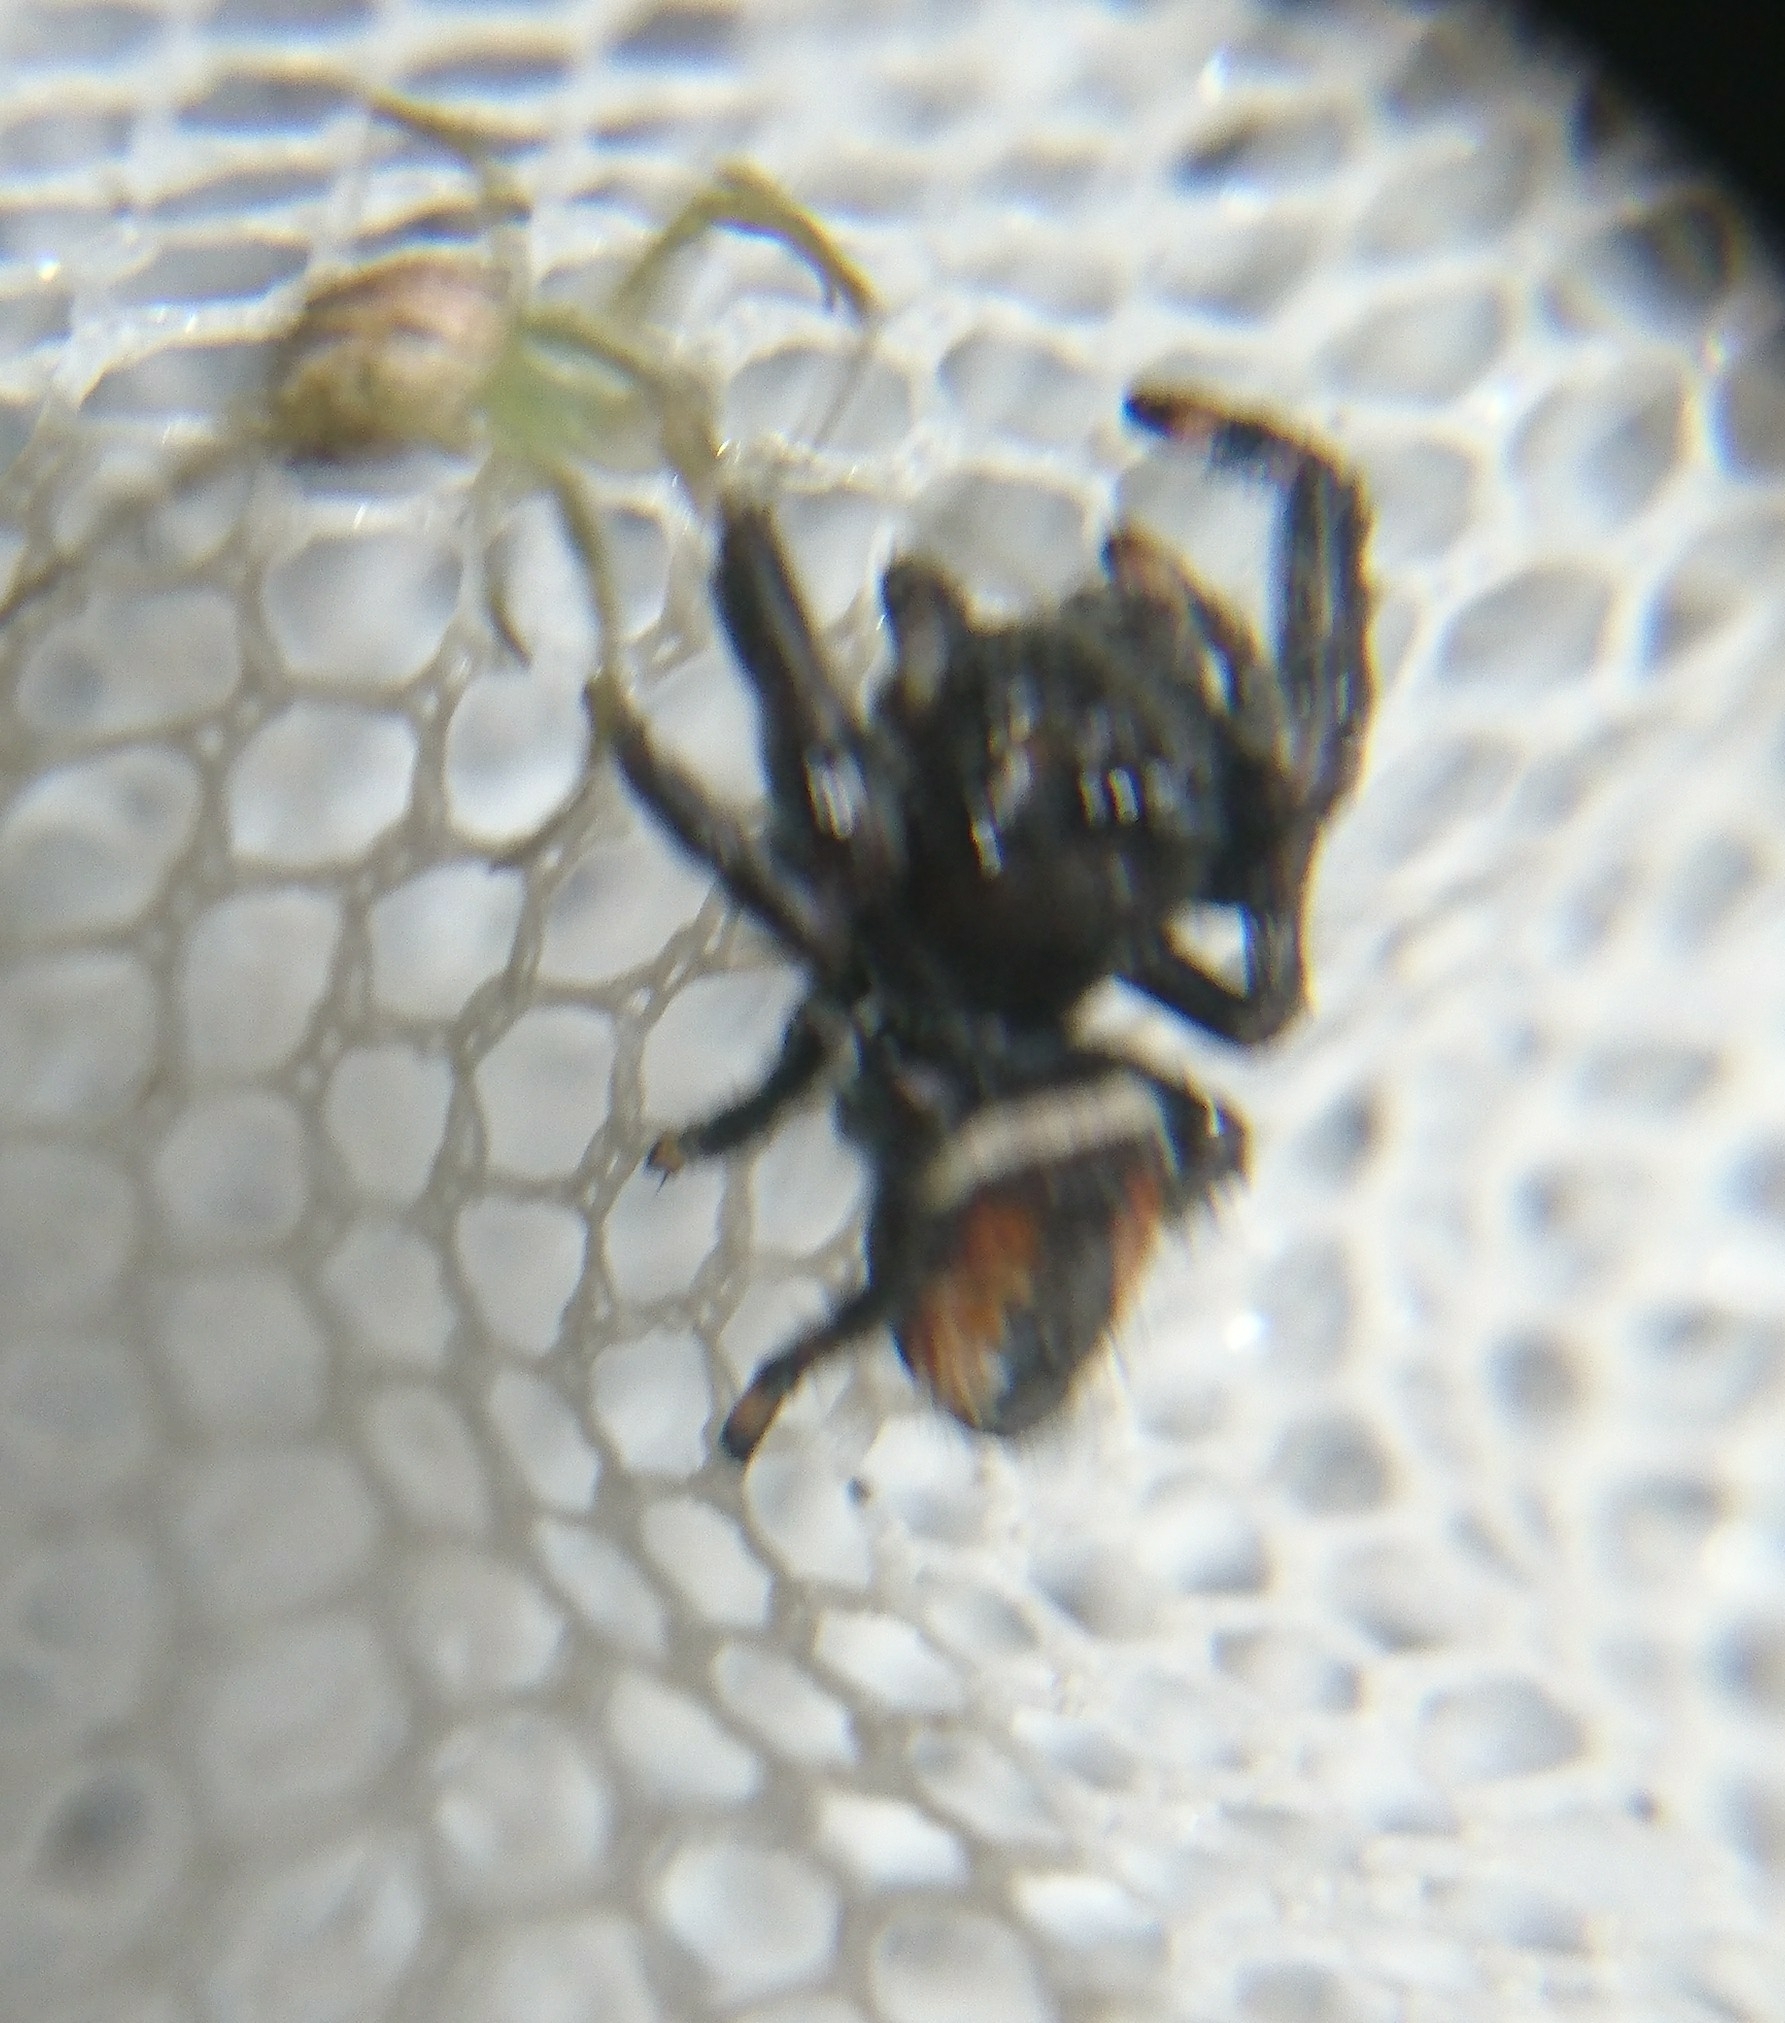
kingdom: Animalia
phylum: Arthropoda
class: Arachnida
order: Araneae
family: Salticidae
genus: Phidippus
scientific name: Phidippus clarus
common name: Brilliant jumping spider
